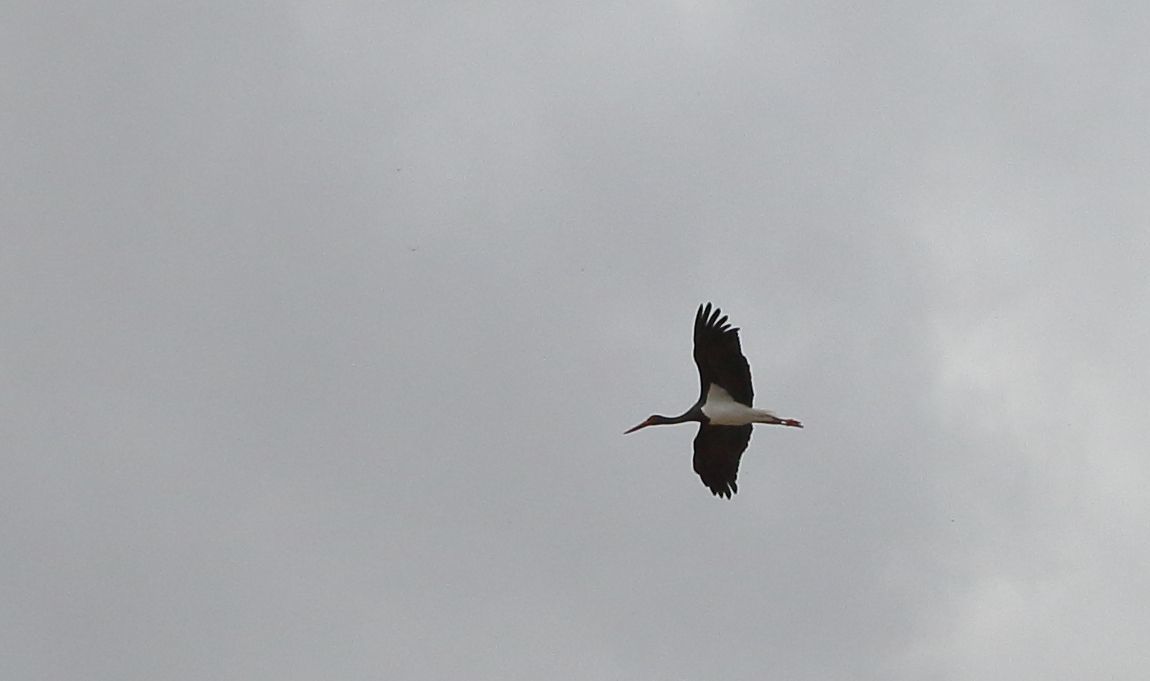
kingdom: Animalia
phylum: Chordata
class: Aves
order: Ciconiiformes
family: Ciconiidae
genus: Ciconia
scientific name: Ciconia nigra
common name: Black stork
